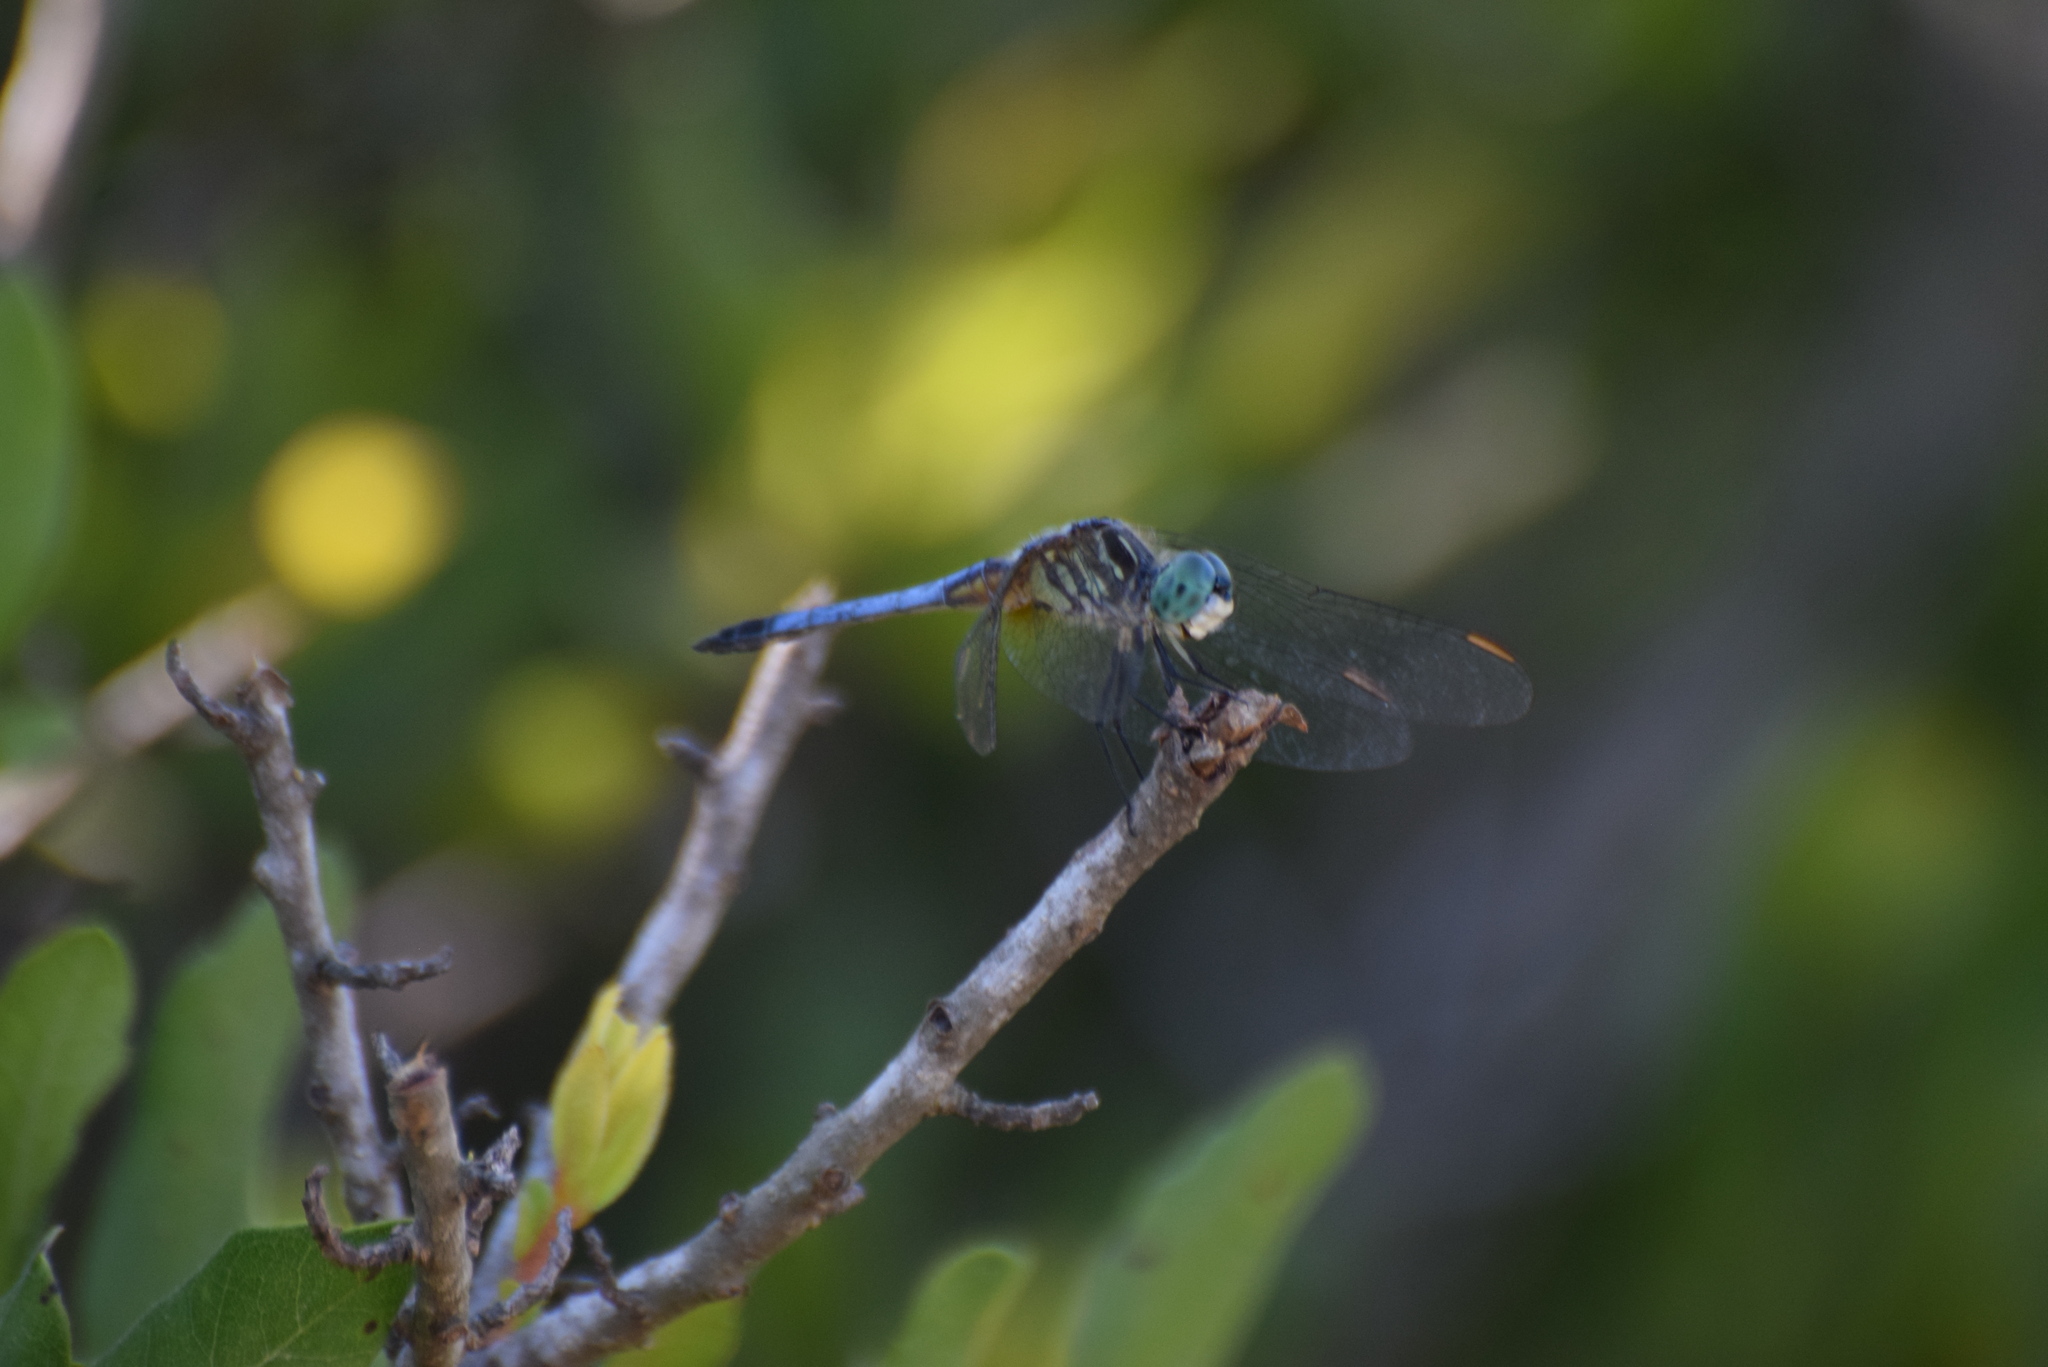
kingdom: Animalia
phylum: Arthropoda
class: Insecta
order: Odonata
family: Libellulidae
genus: Pachydiplax
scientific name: Pachydiplax longipennis
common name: Blue dasher
